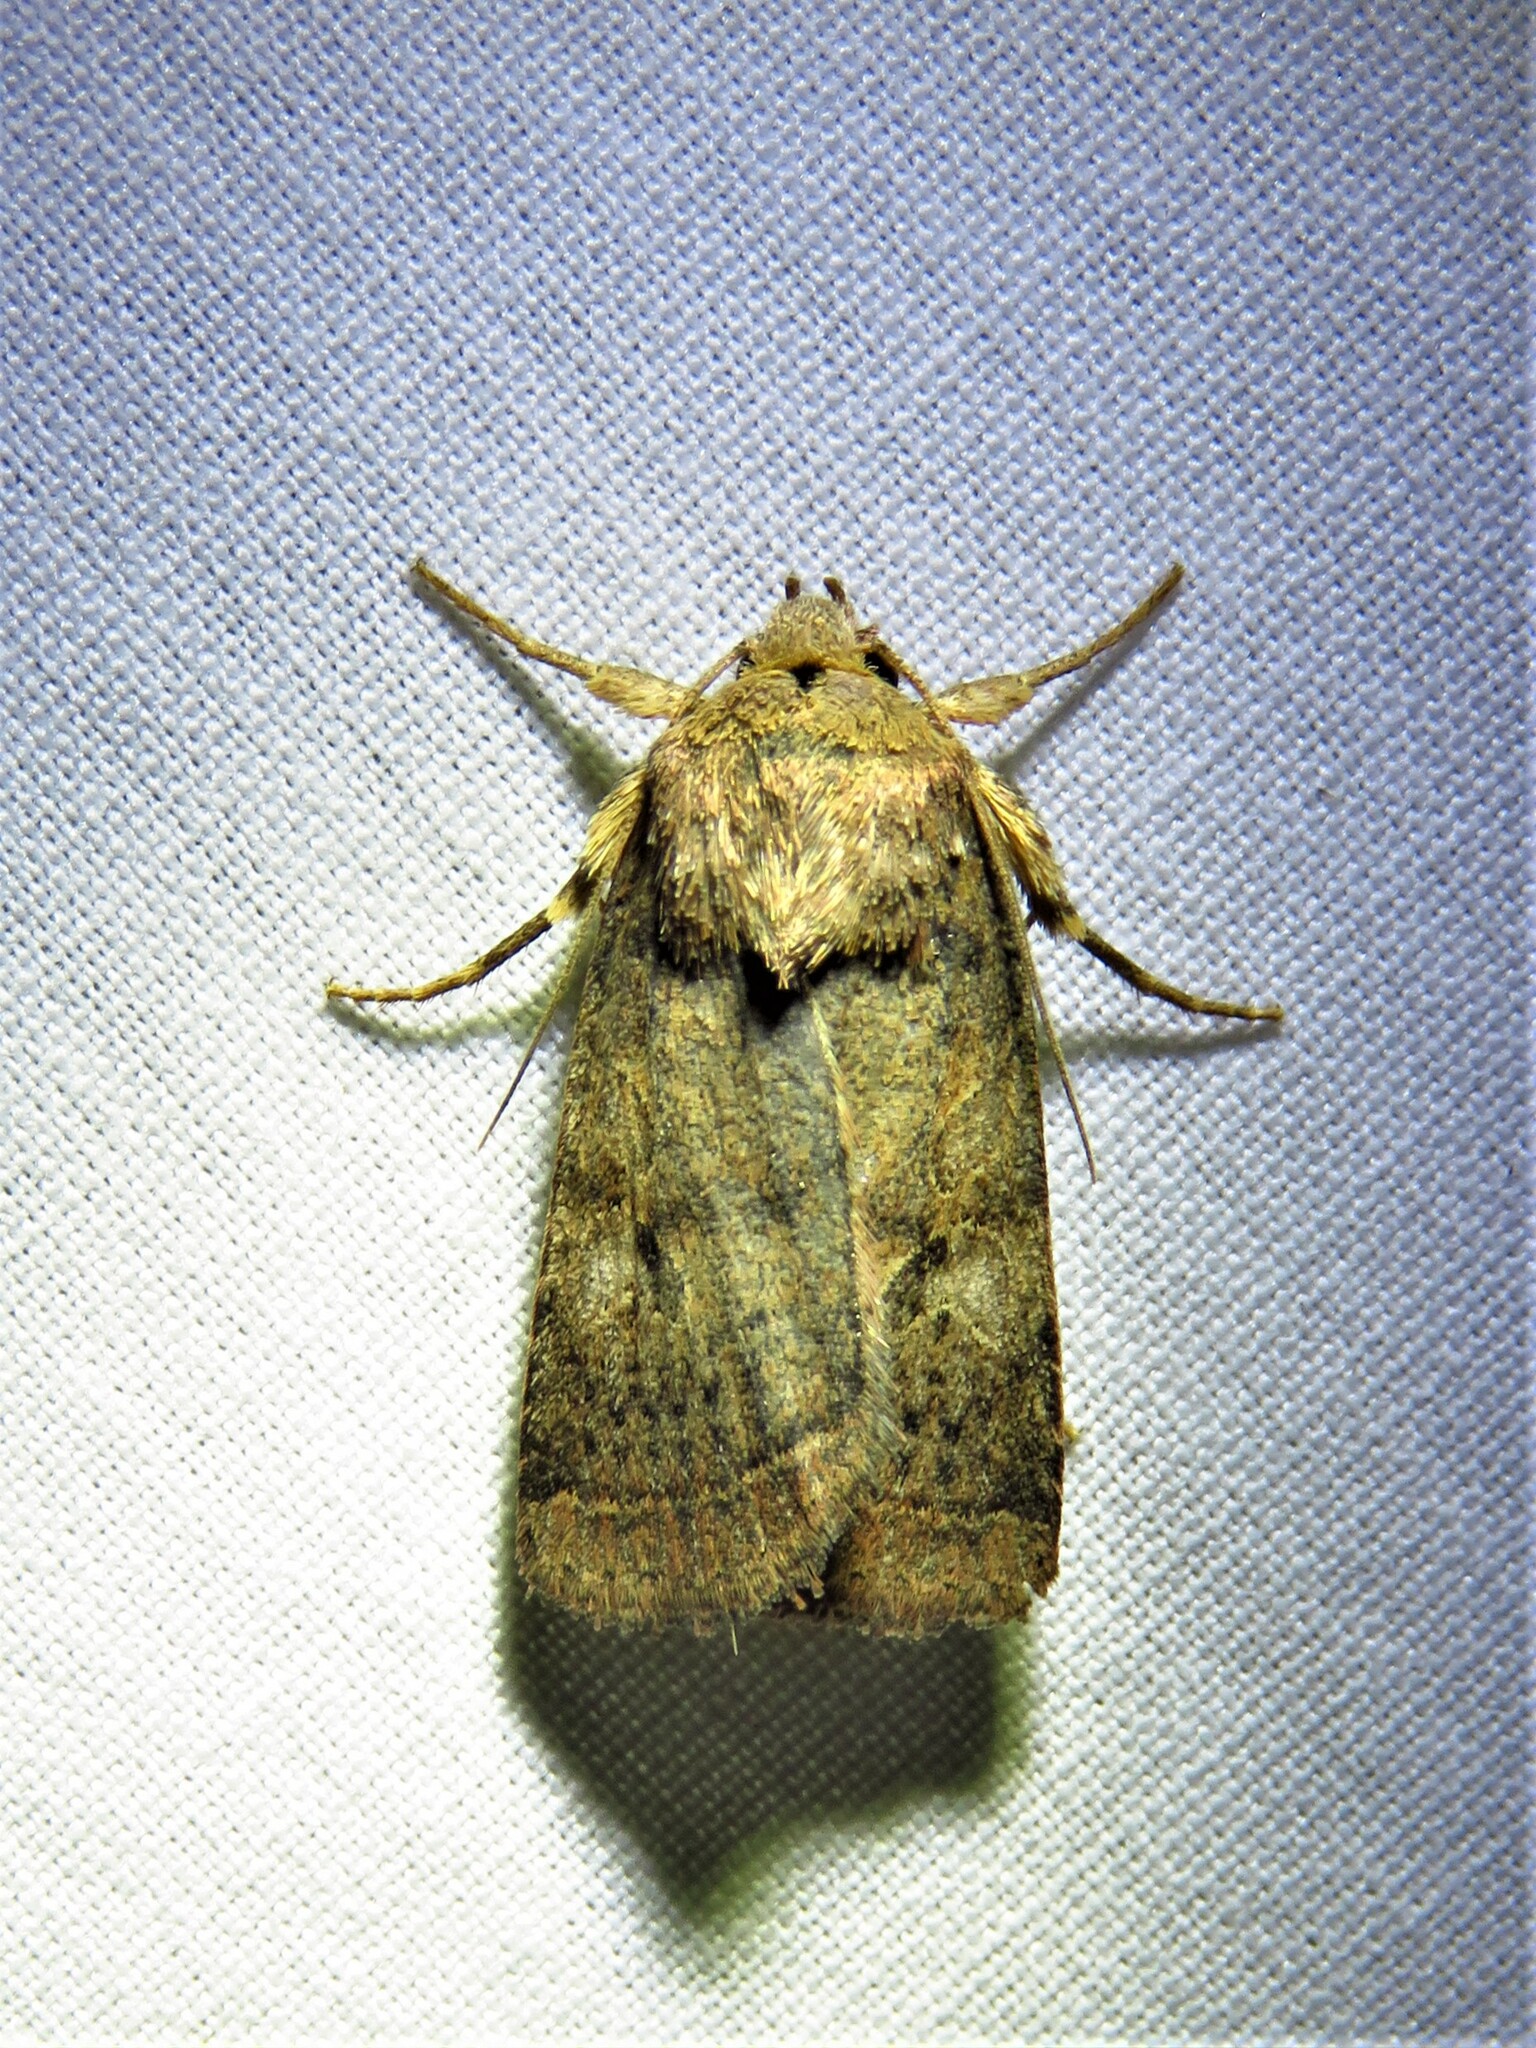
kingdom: Animalia
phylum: Arthropoda
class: Insecta
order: Lepidoptera
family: Noctuidae
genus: Orthodes
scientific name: Orthodes furtiva
